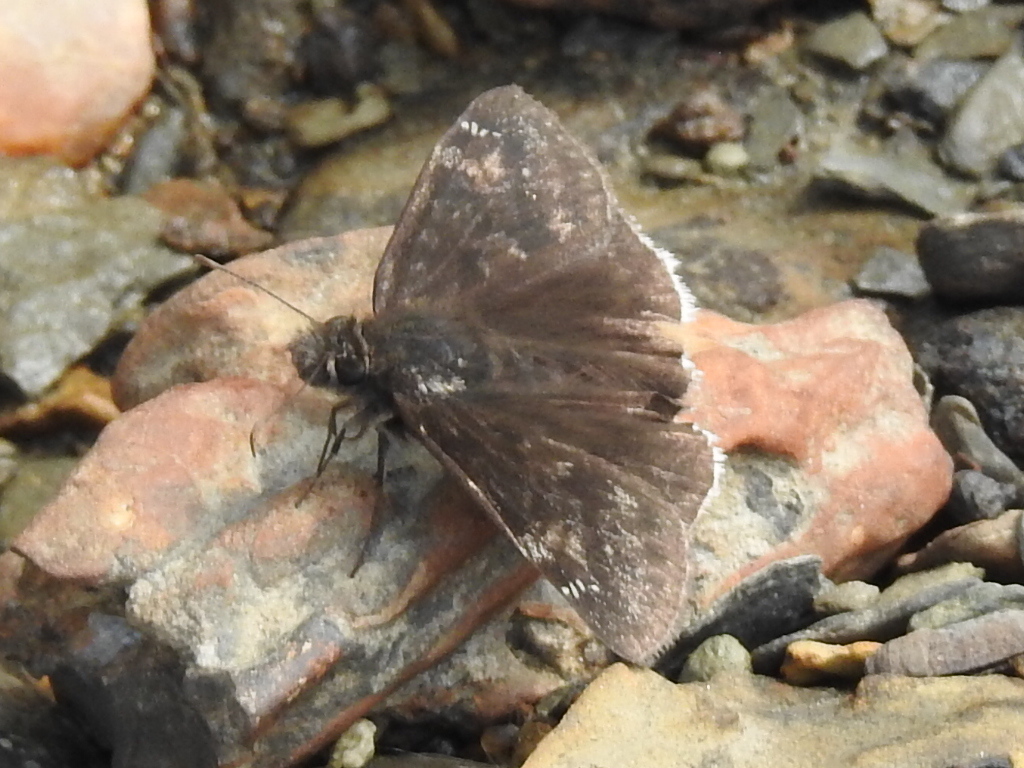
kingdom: Animalia
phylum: Arthropoda
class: Insecta
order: Lepidoptera
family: Hesperiidae
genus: Erynnis
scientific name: Erynnis funeralis
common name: Funereal duskywing
